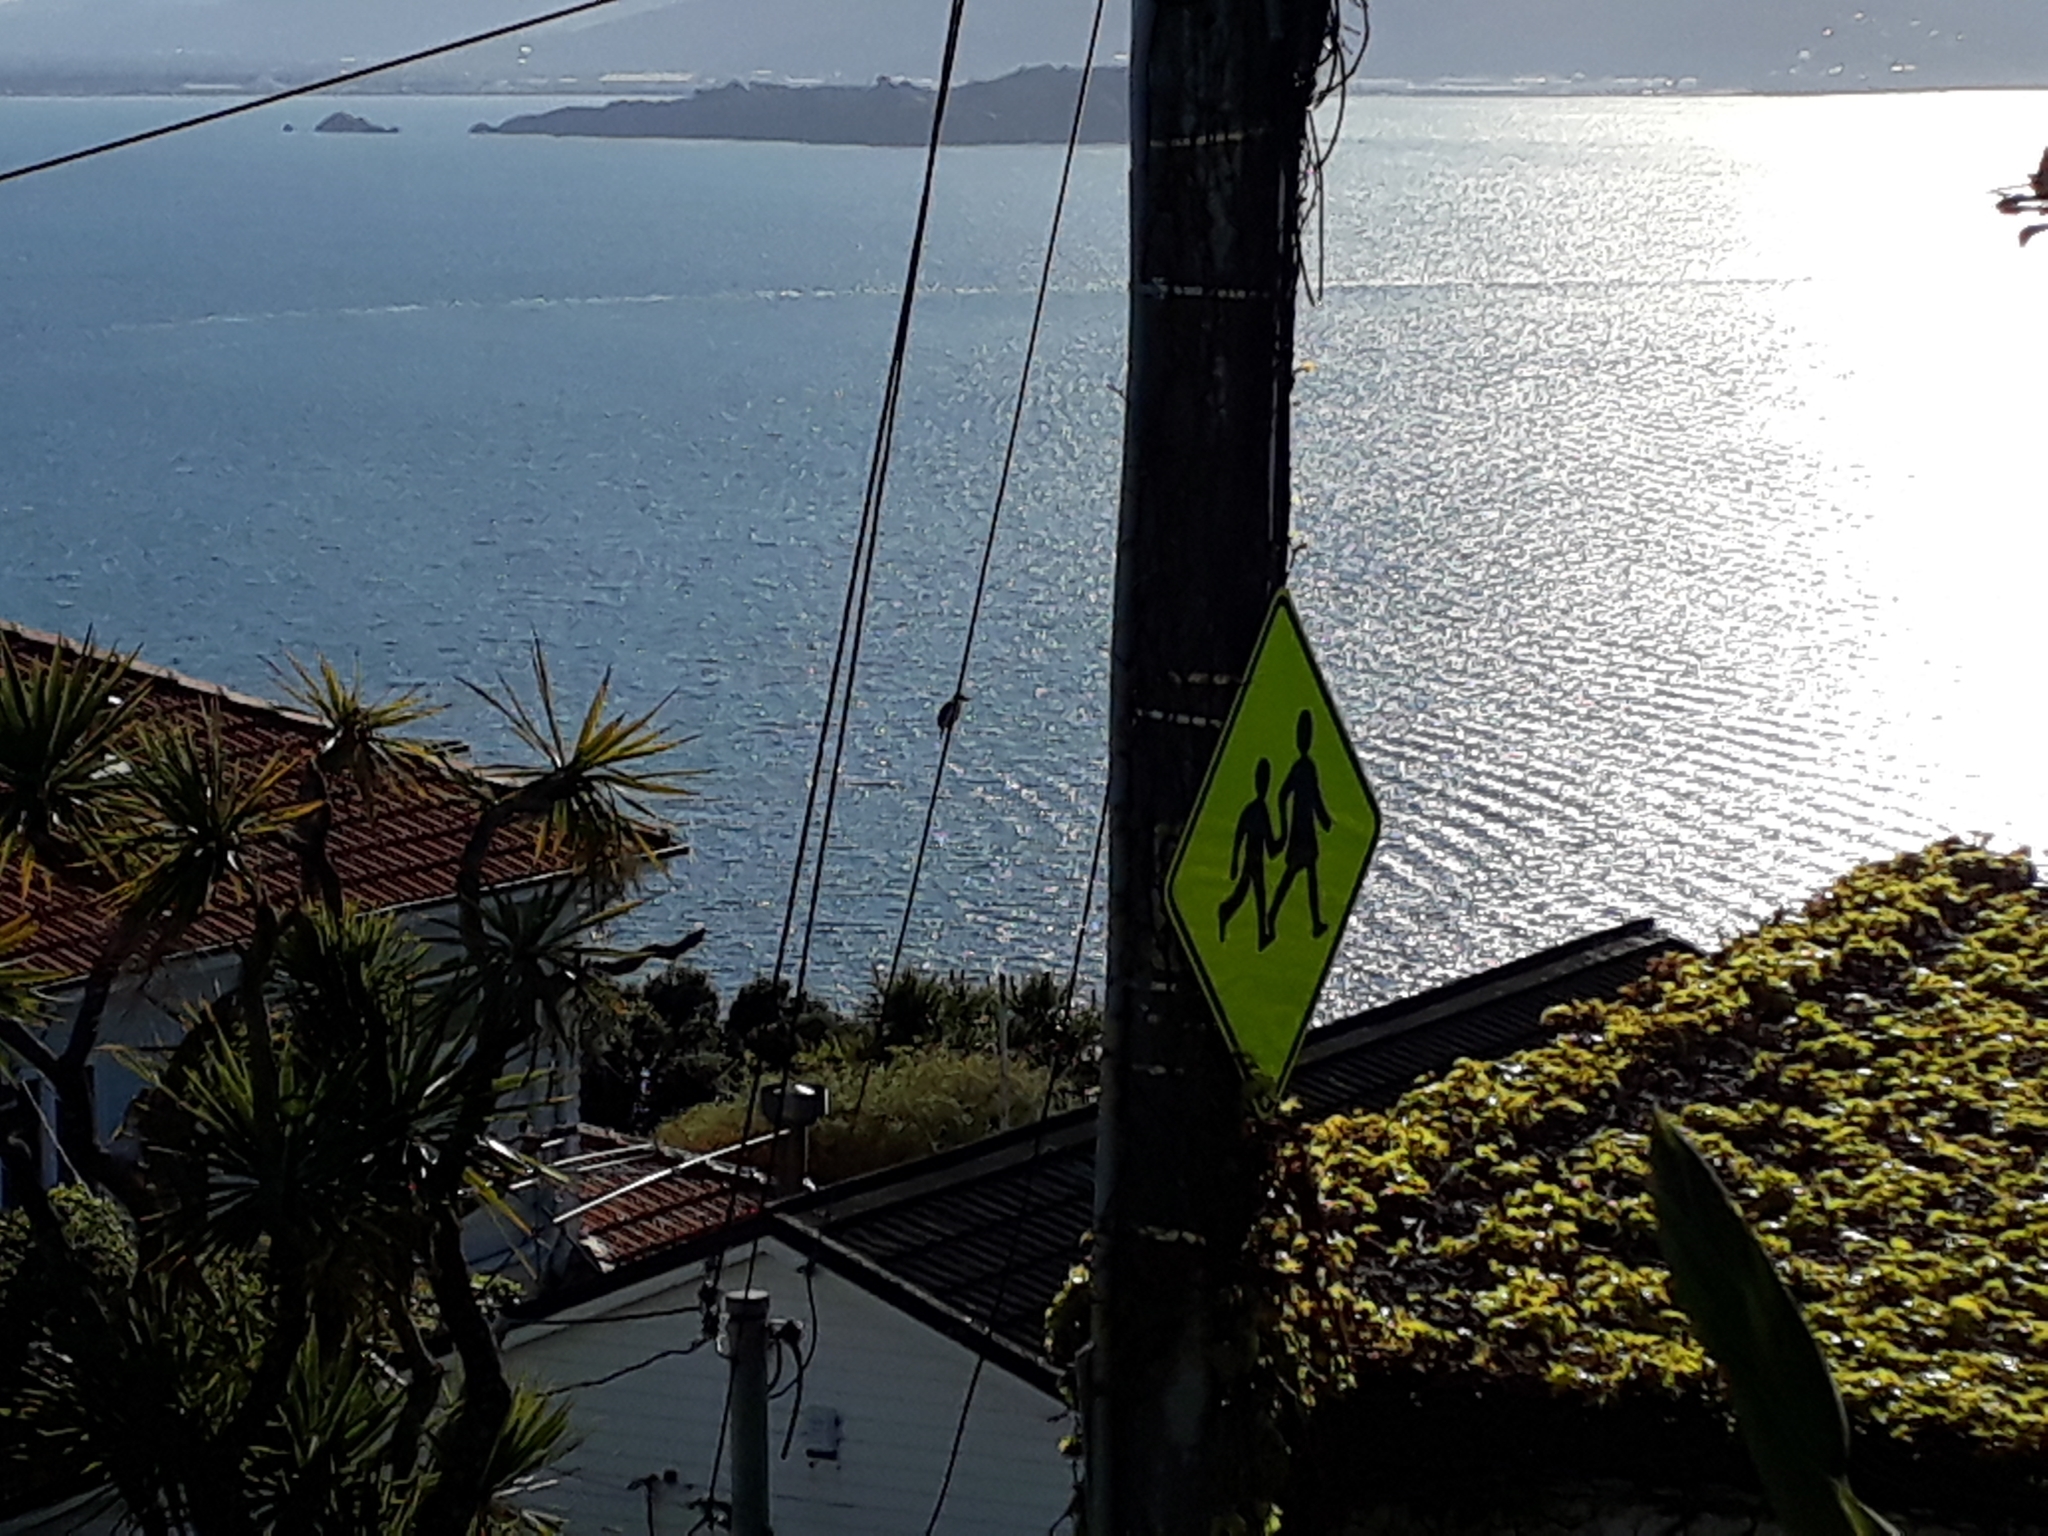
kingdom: Animalia
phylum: Chordata
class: Aves
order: Coraciiformes
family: Alcedinidae
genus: Todiramphus
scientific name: Todiramphus sanctus
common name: Sacred kingfisher
